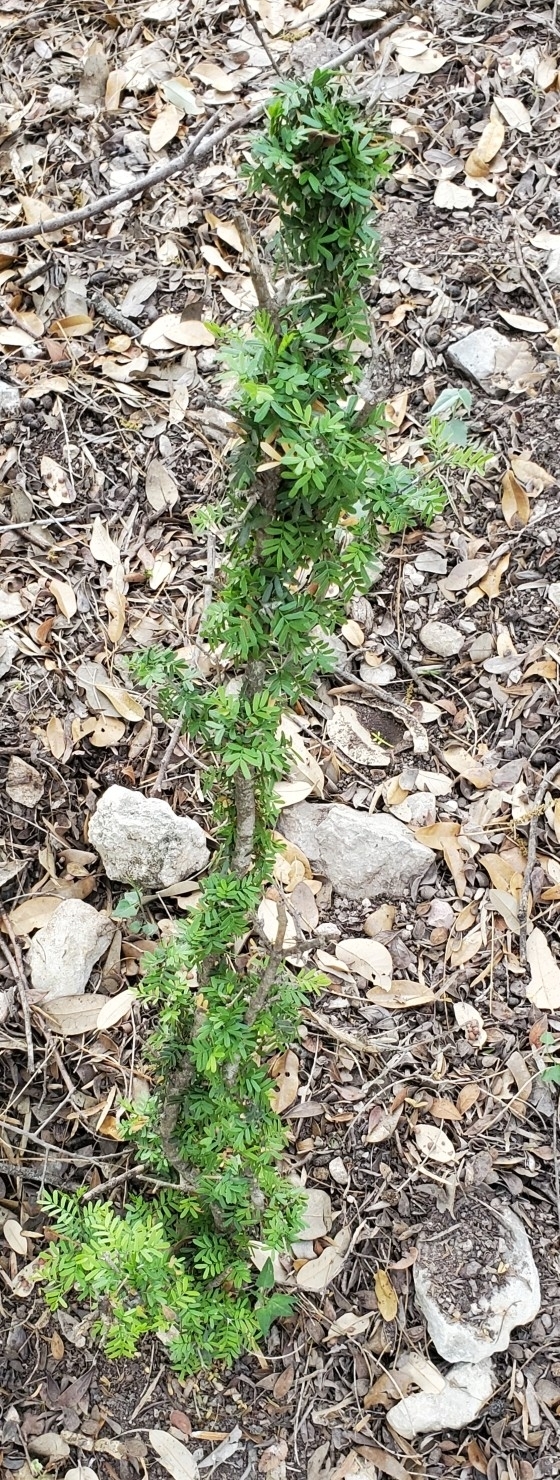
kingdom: Plantae
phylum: Tracheophyta
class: Magnoliopsida
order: Zygophyllales
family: Zygophyllaceae
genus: Porlieria
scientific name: Porlieria angustifolia
